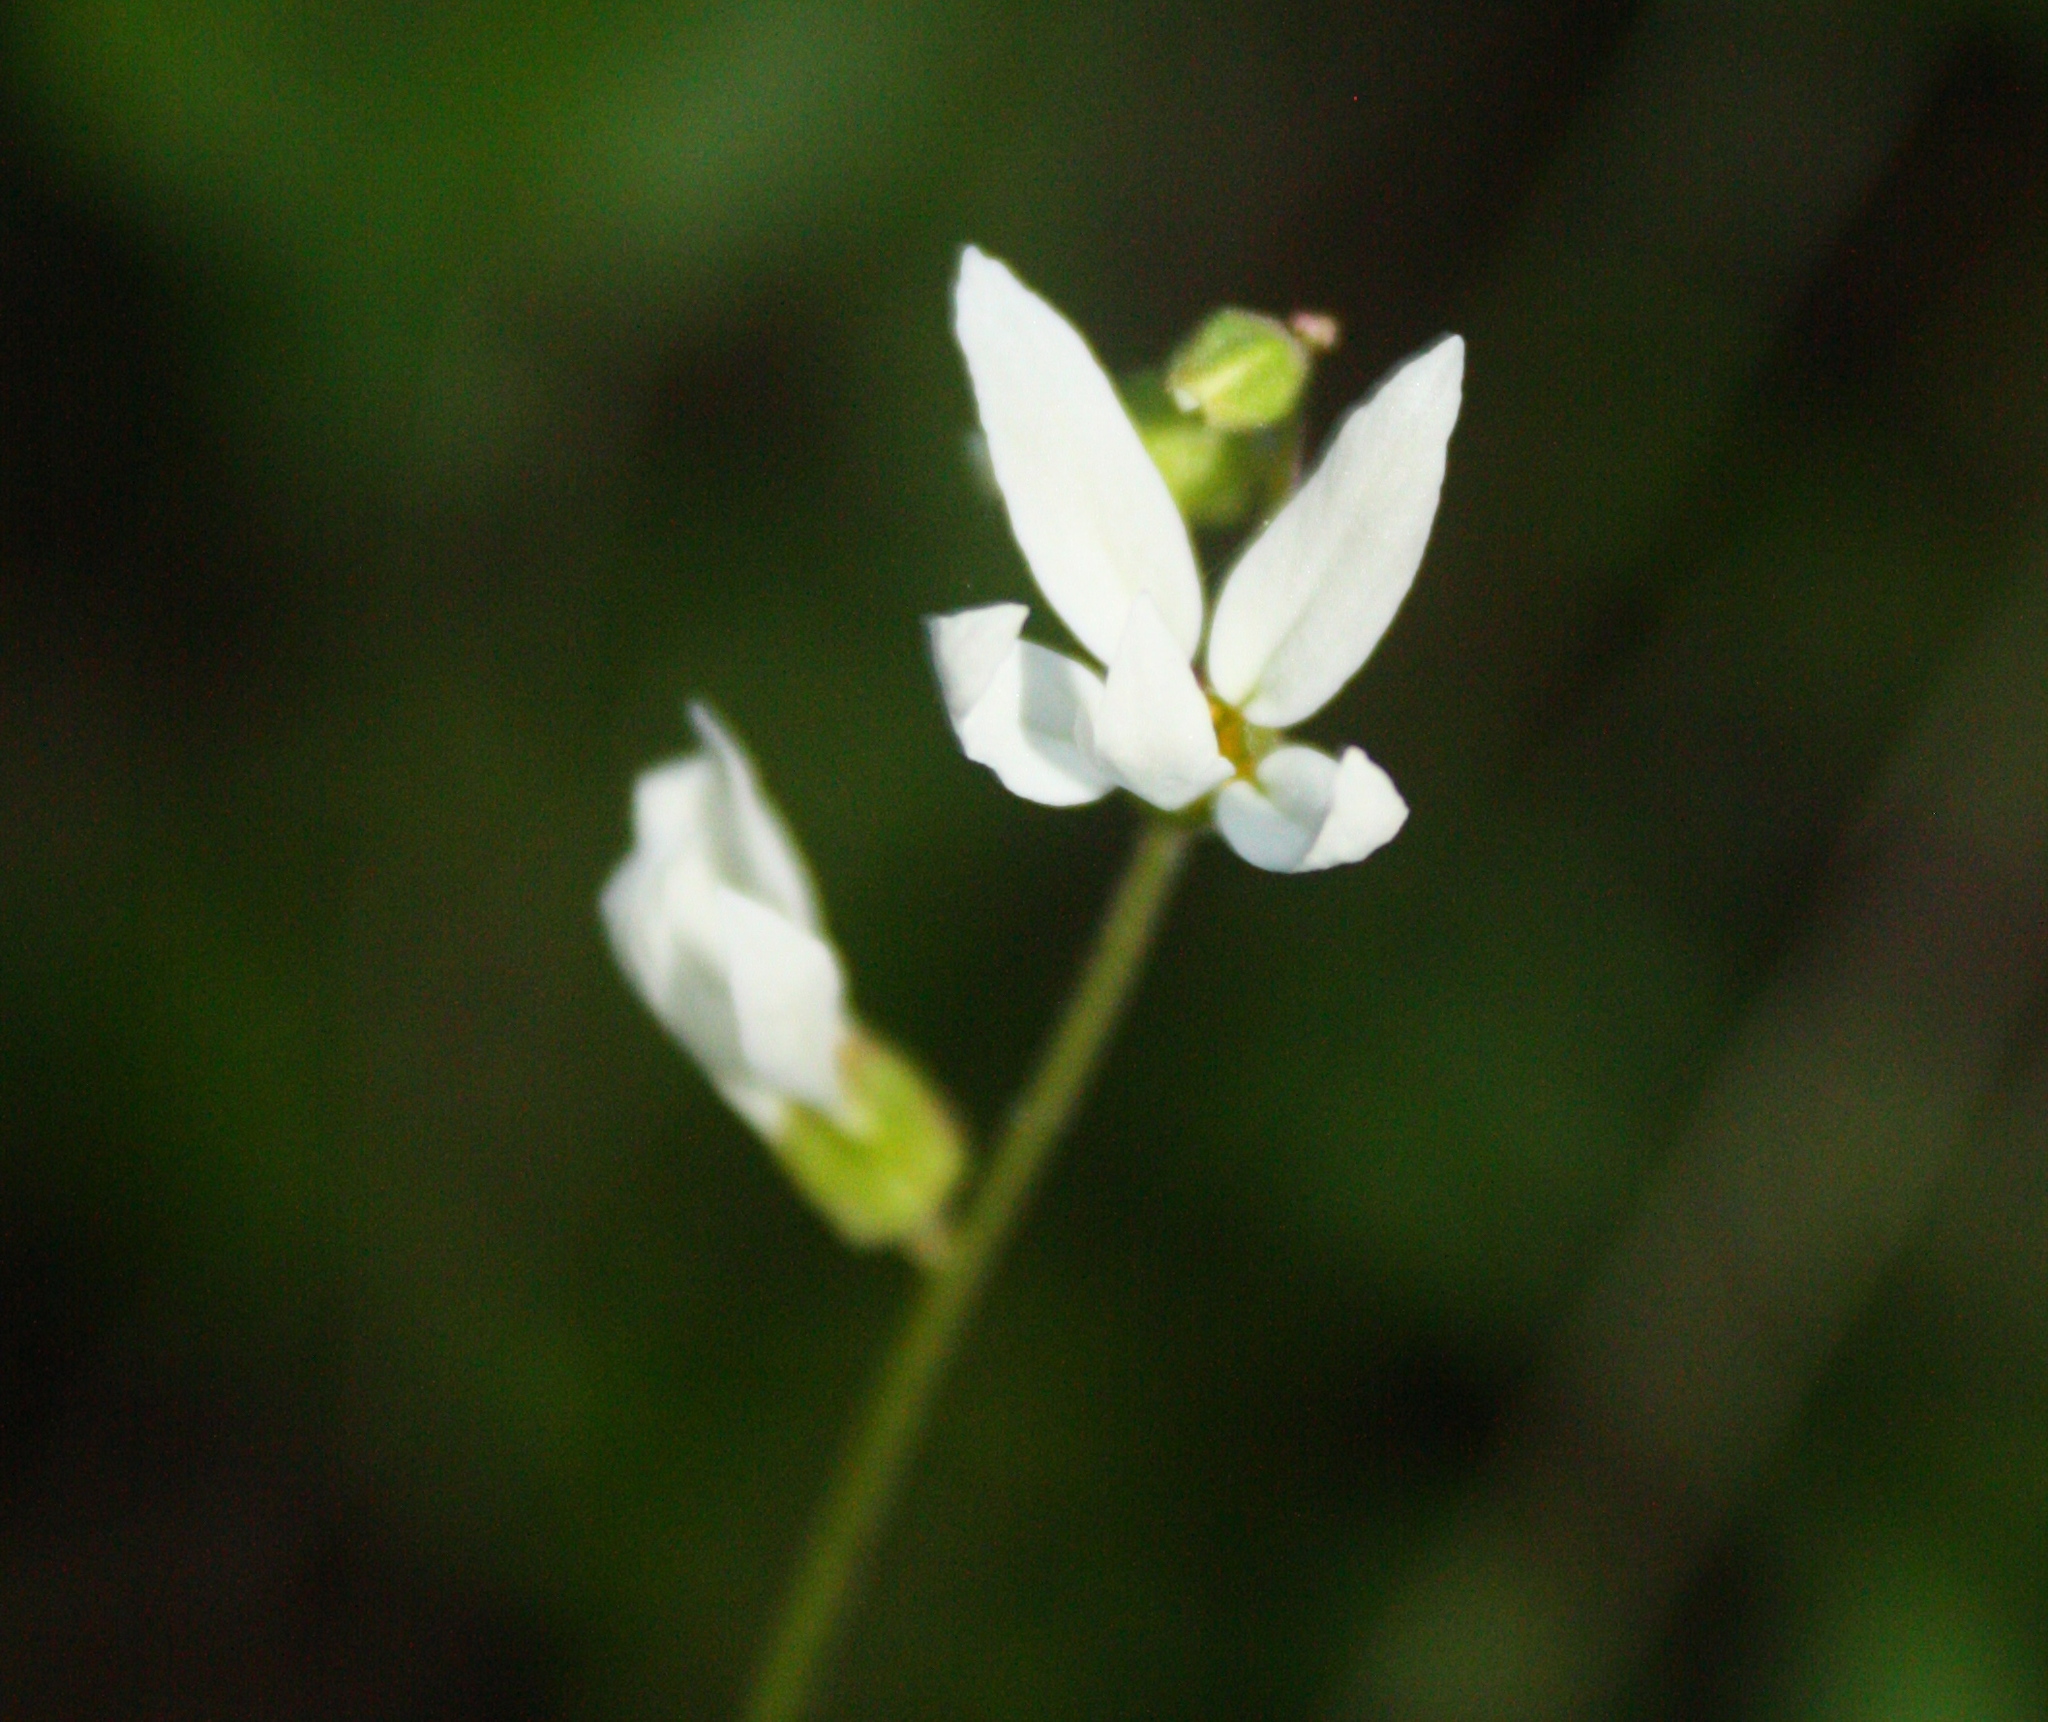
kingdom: Plantae
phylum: Tracheophyta
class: Magnoliopsida
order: Saxifragales
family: Saxifragaceae
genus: Lithophragma
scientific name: Lithophragma heterophyllum
